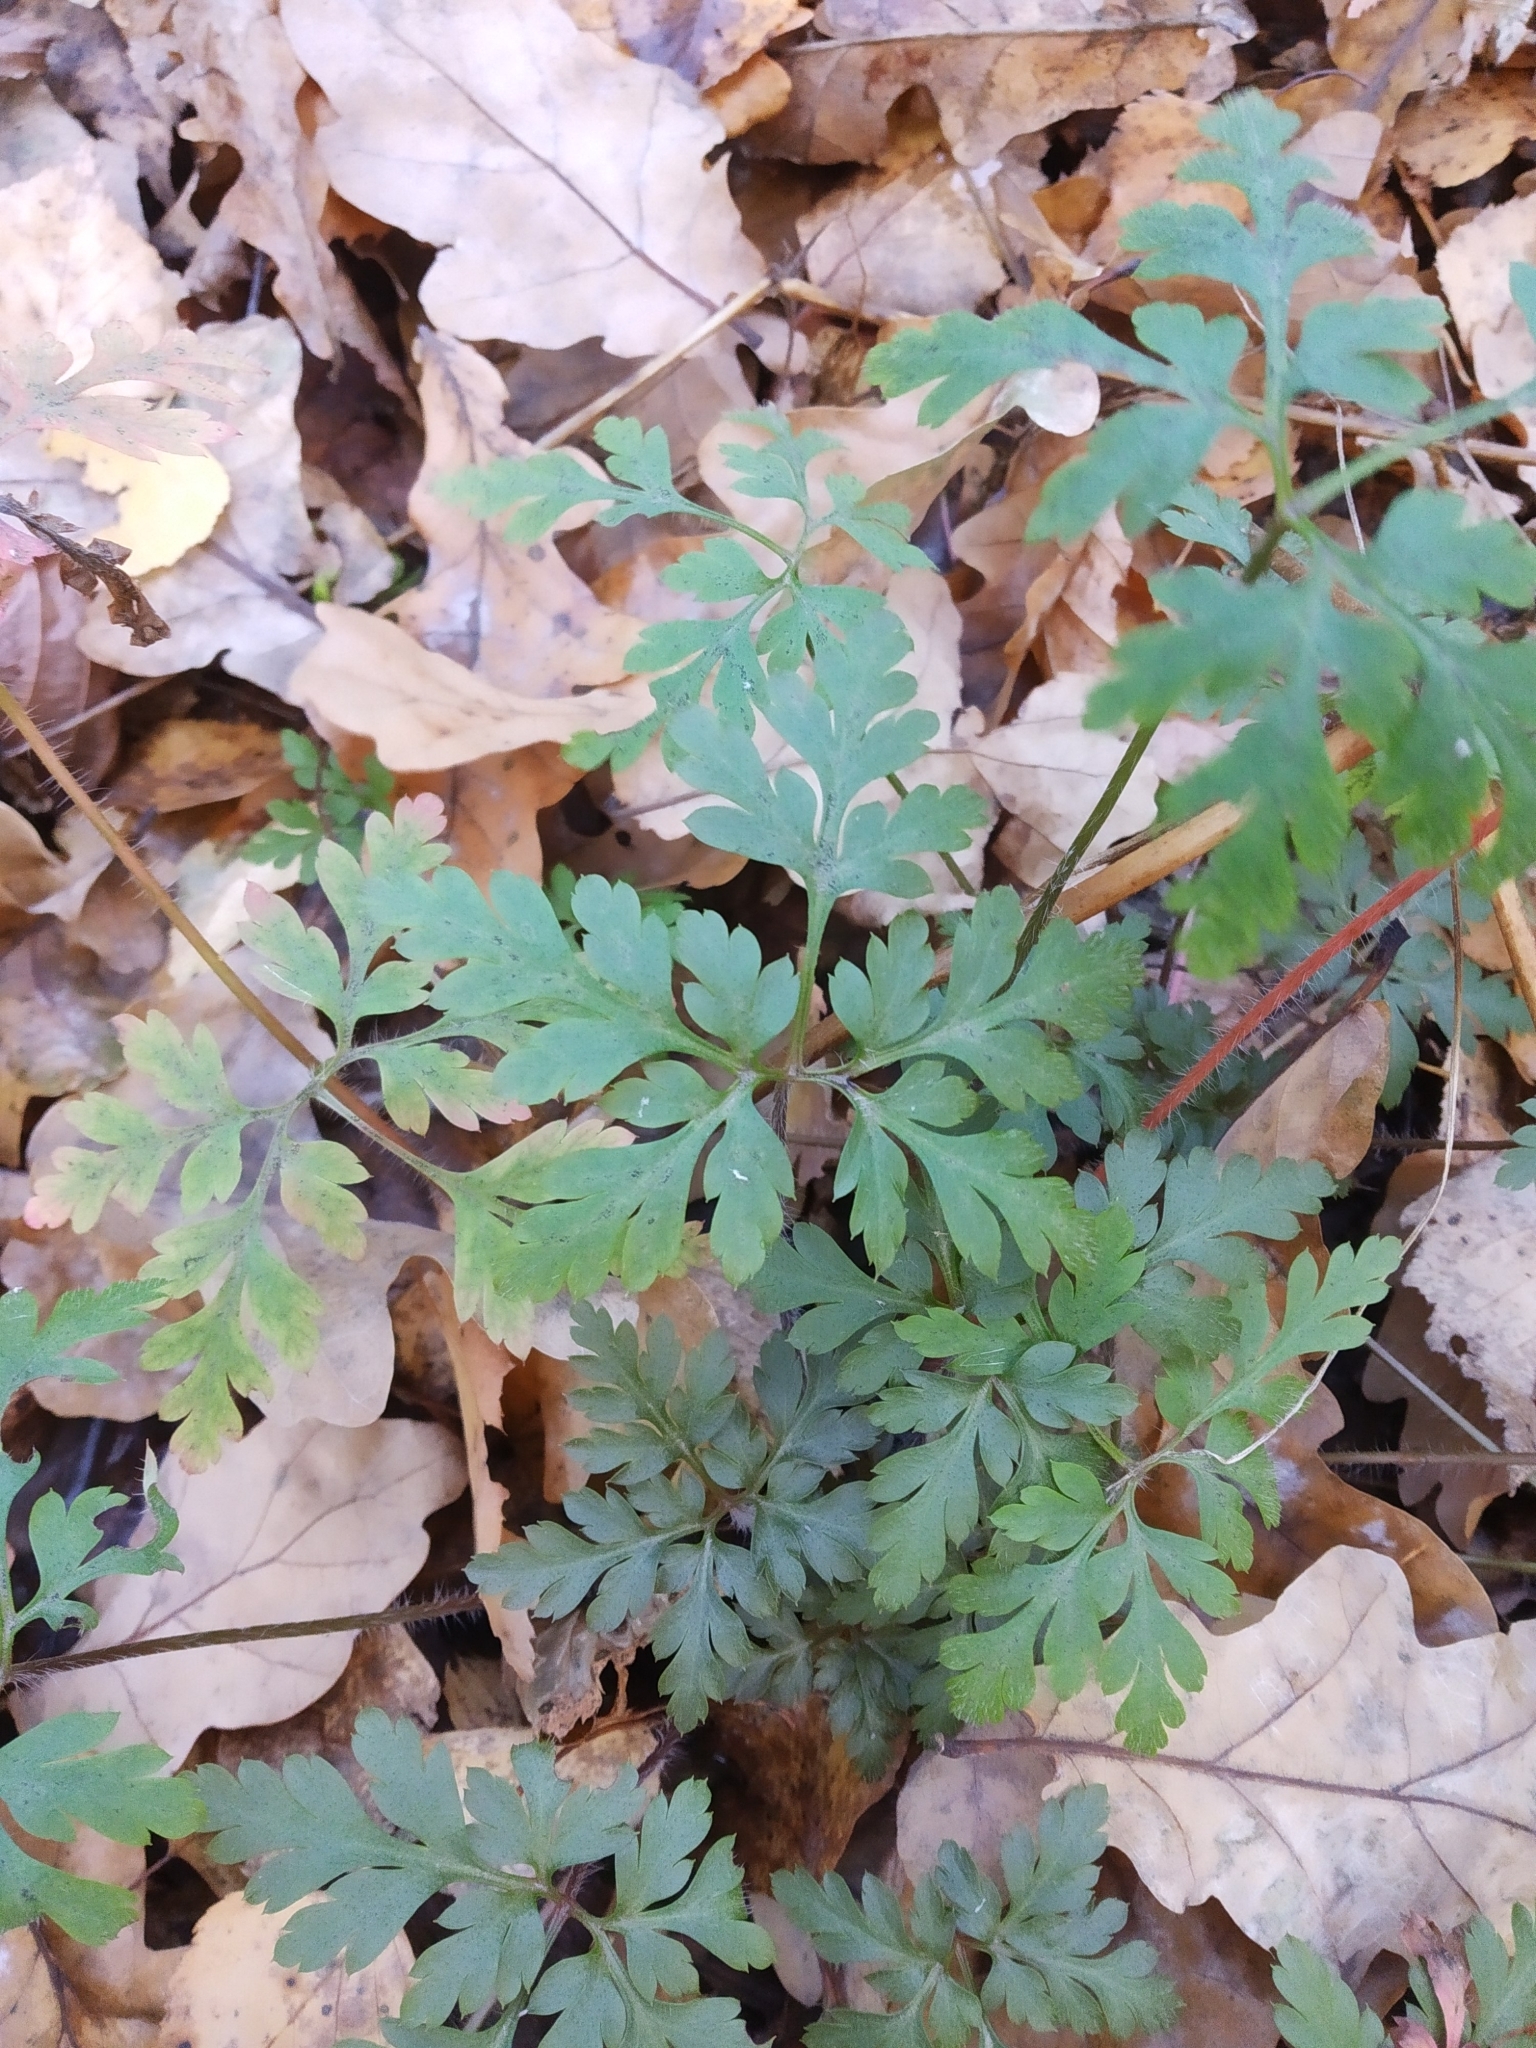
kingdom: Plantae
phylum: Tracheophyta
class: Magnoliopsida
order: Geraniales
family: Geraniaceae
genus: Geranium
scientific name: Geranium robertianum
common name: Herb-robert
